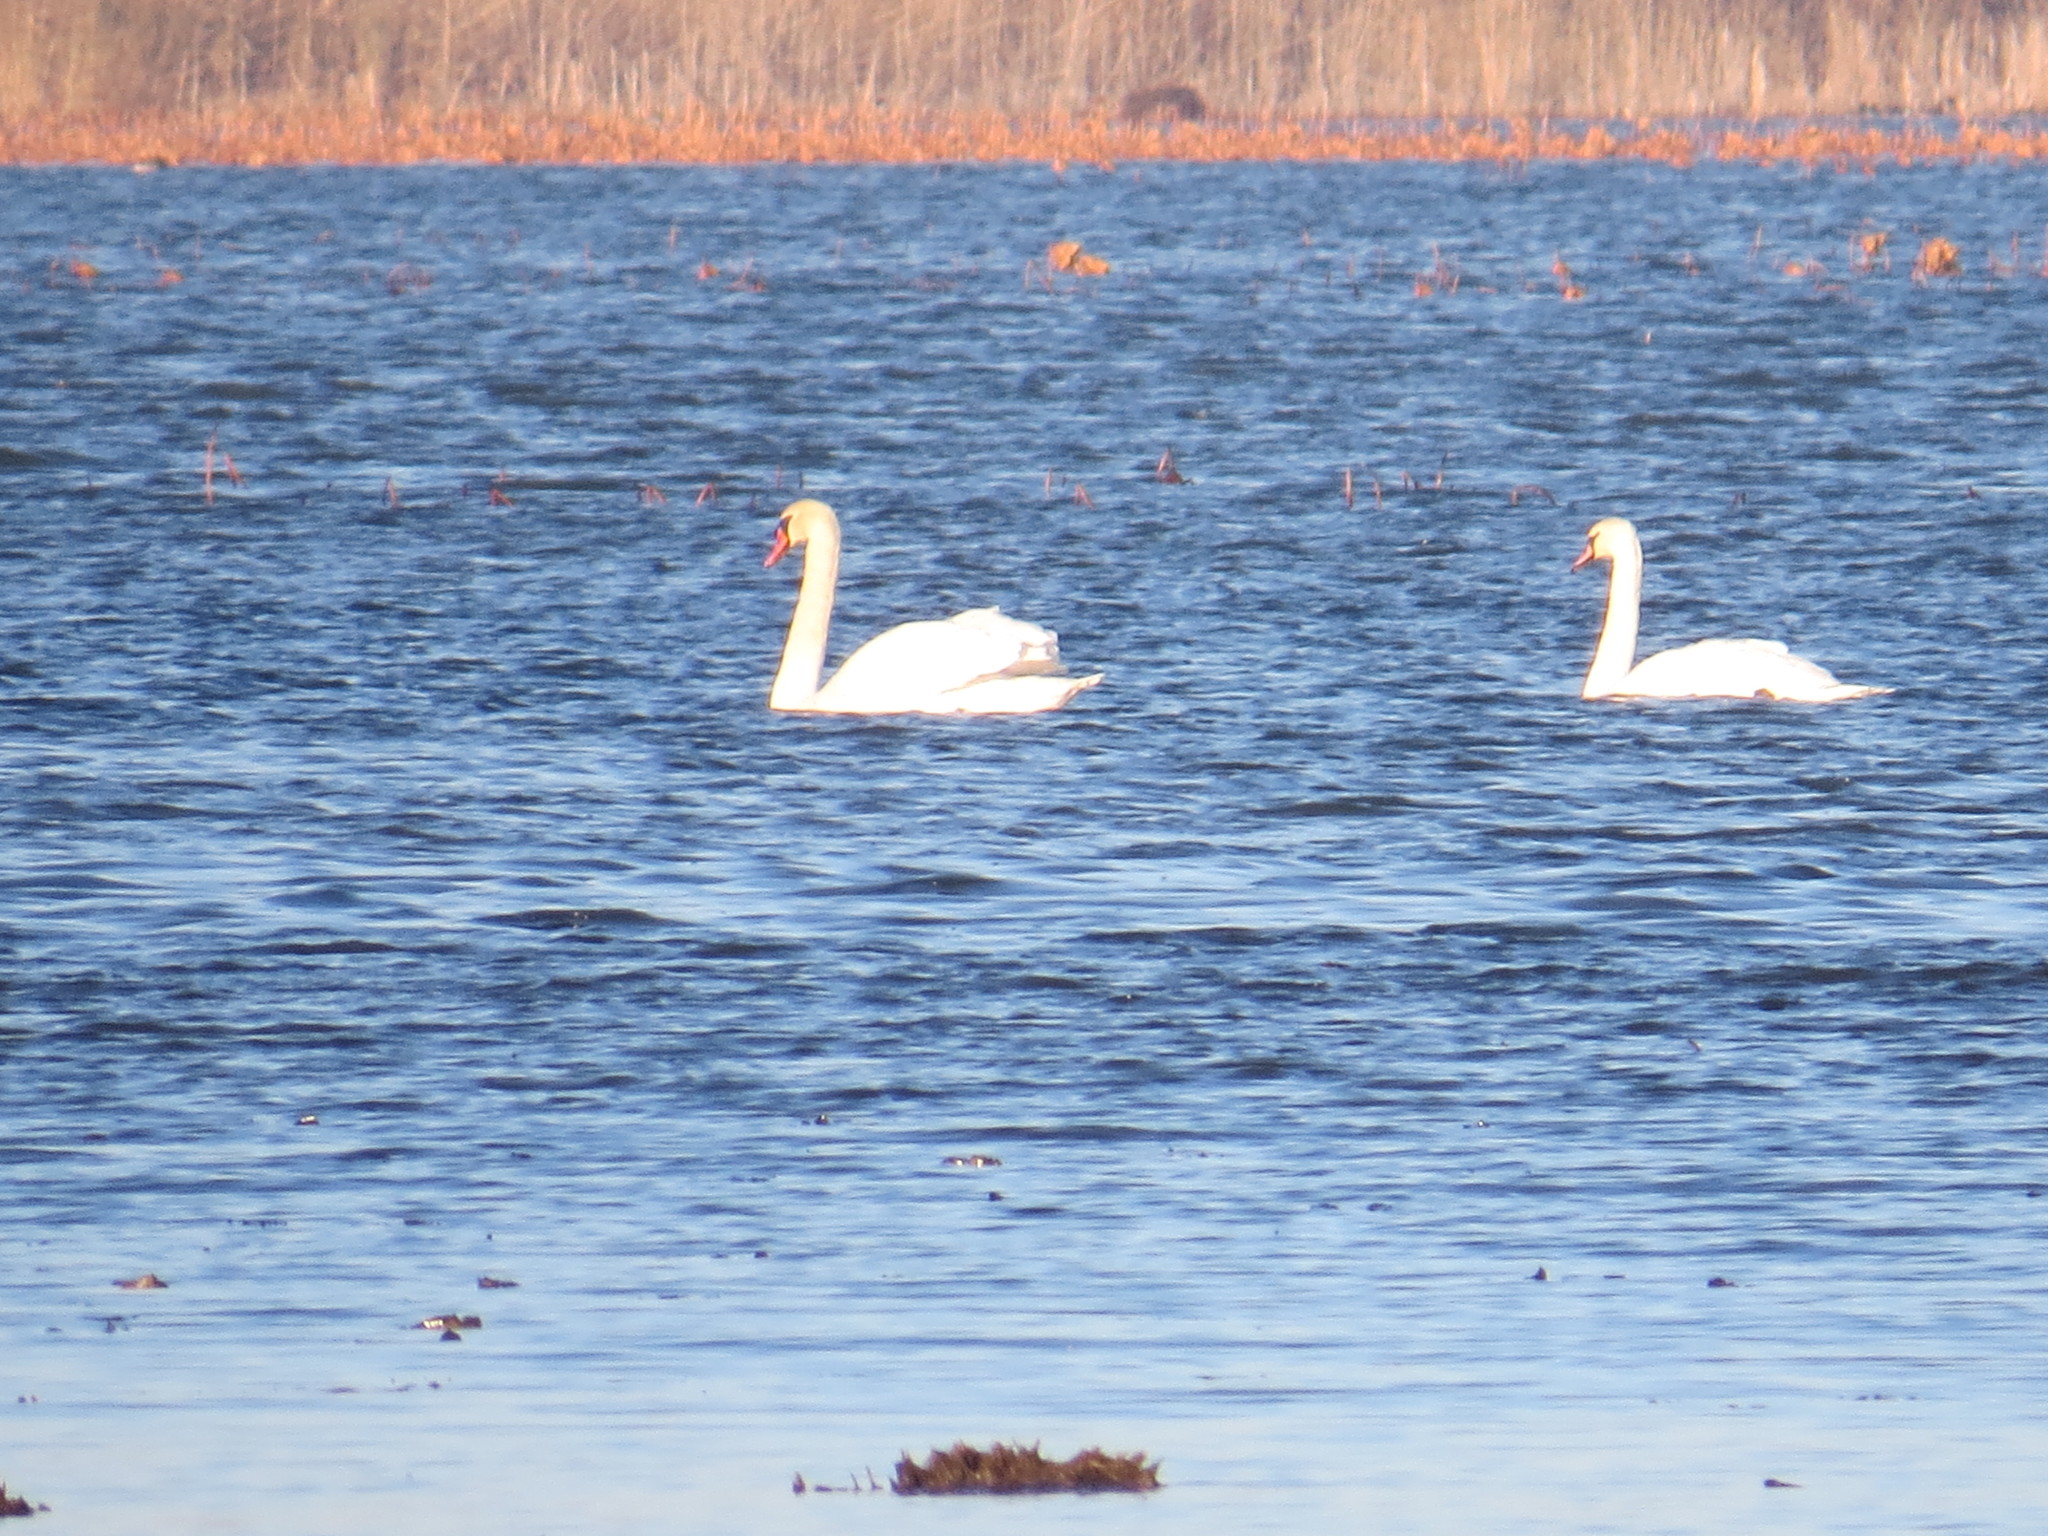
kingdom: Animalia
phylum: Chordata
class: Aves
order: Anseriformes
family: Anatidae
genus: Cygnus
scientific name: Cygnus olor
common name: Mute swan
